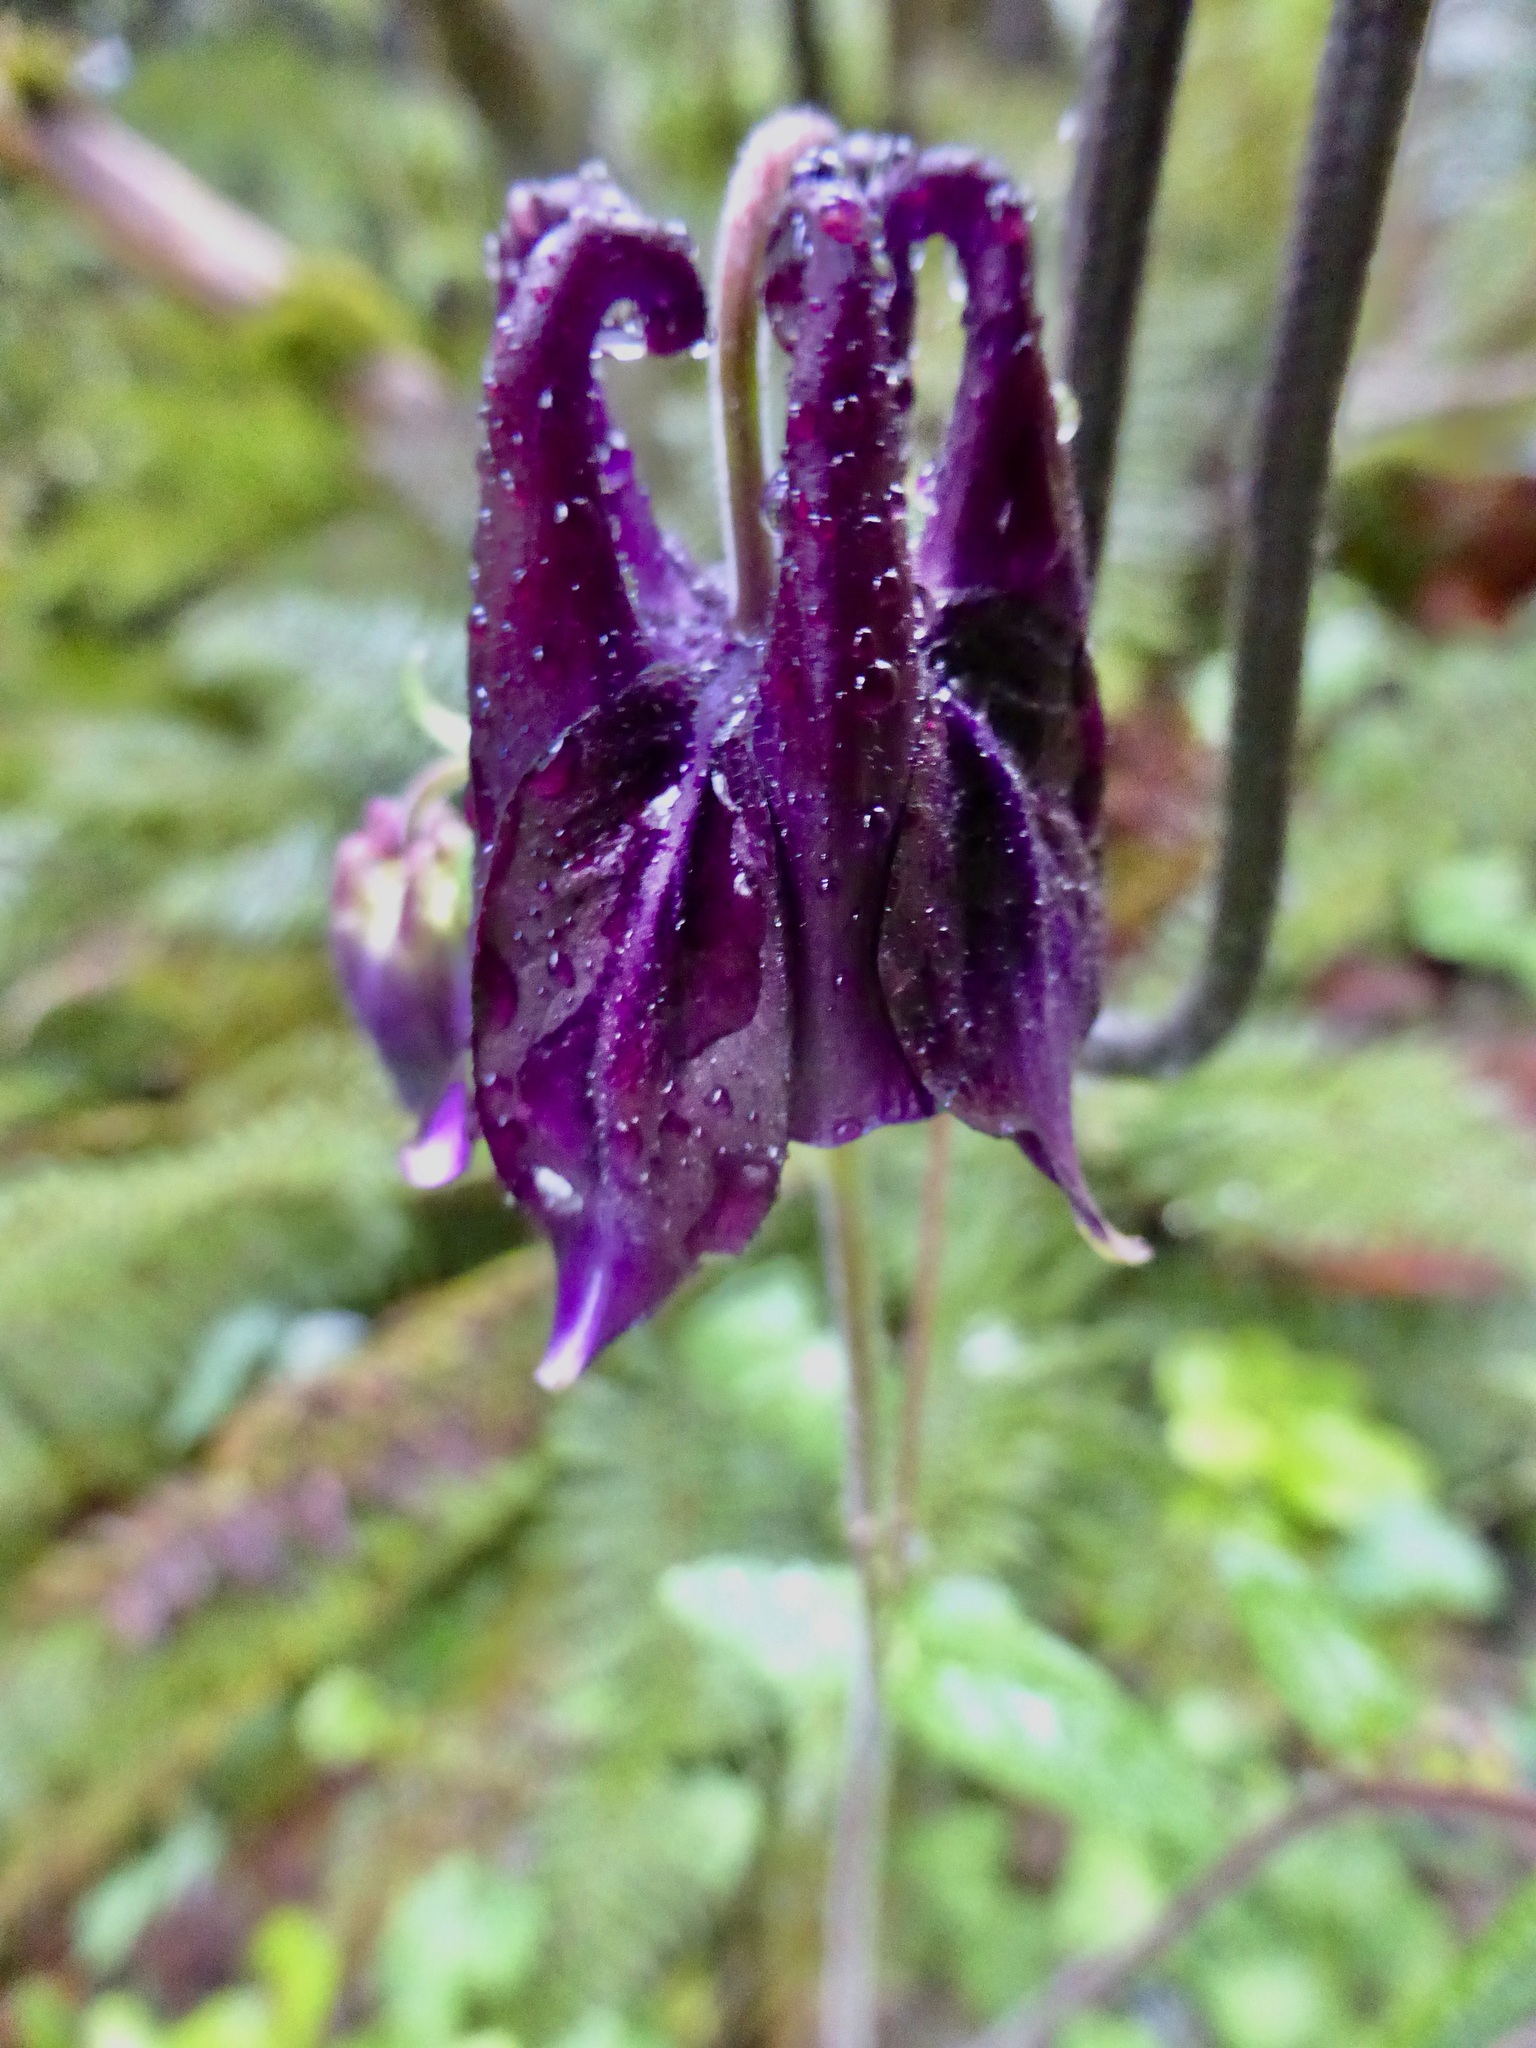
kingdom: Plantae
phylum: Tracheophyta
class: Magnoliopsida
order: Ranunculales
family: Ranunculaceae
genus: Aquilegia
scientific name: Aquilegia vulgaris
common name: Columbine
